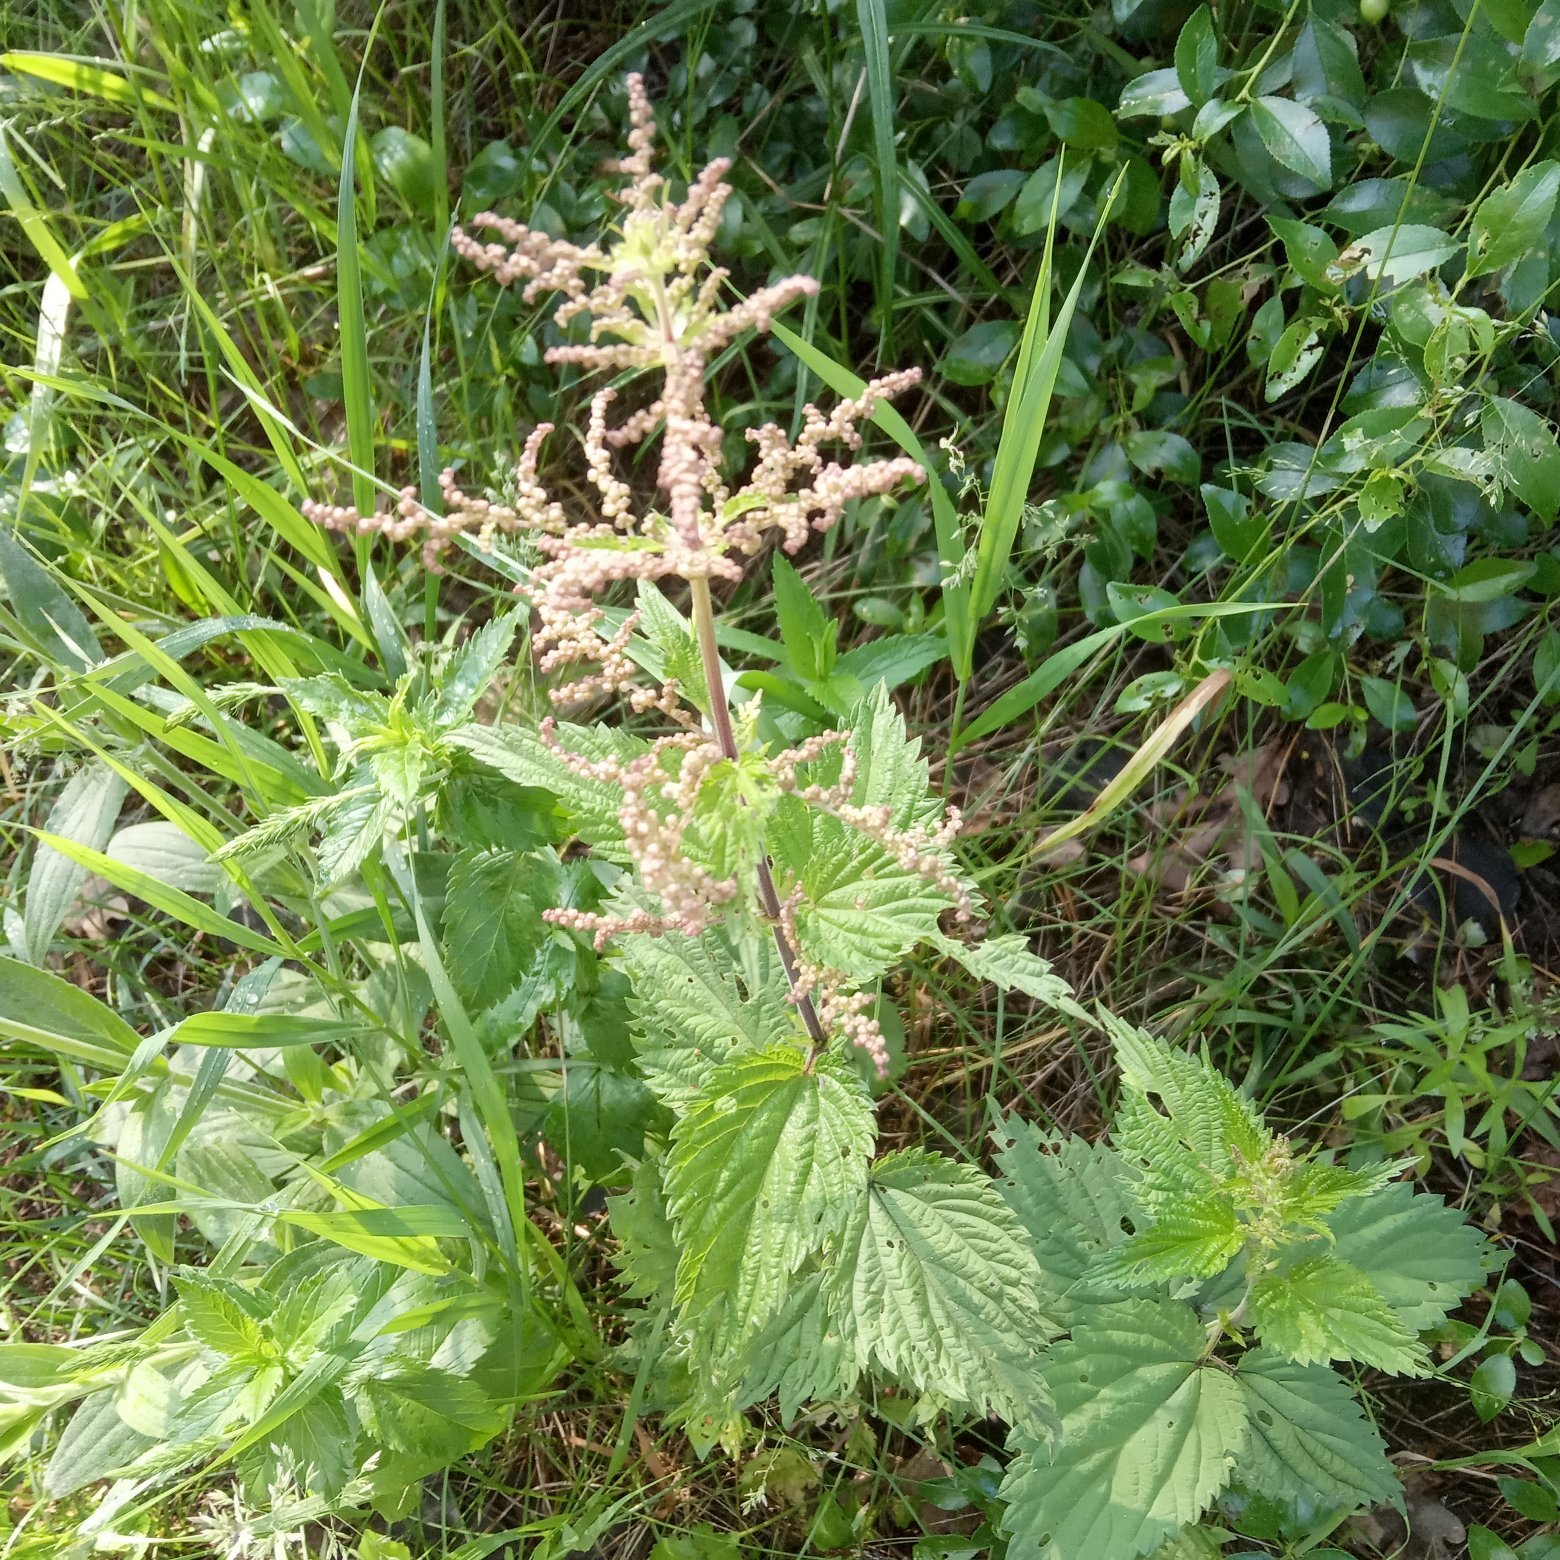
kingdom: Plantae
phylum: Tracheophyta
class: Magnoliopsida
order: Rosales
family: Urticaceae
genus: Urtica
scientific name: Urtica dioica
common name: Common nettle
